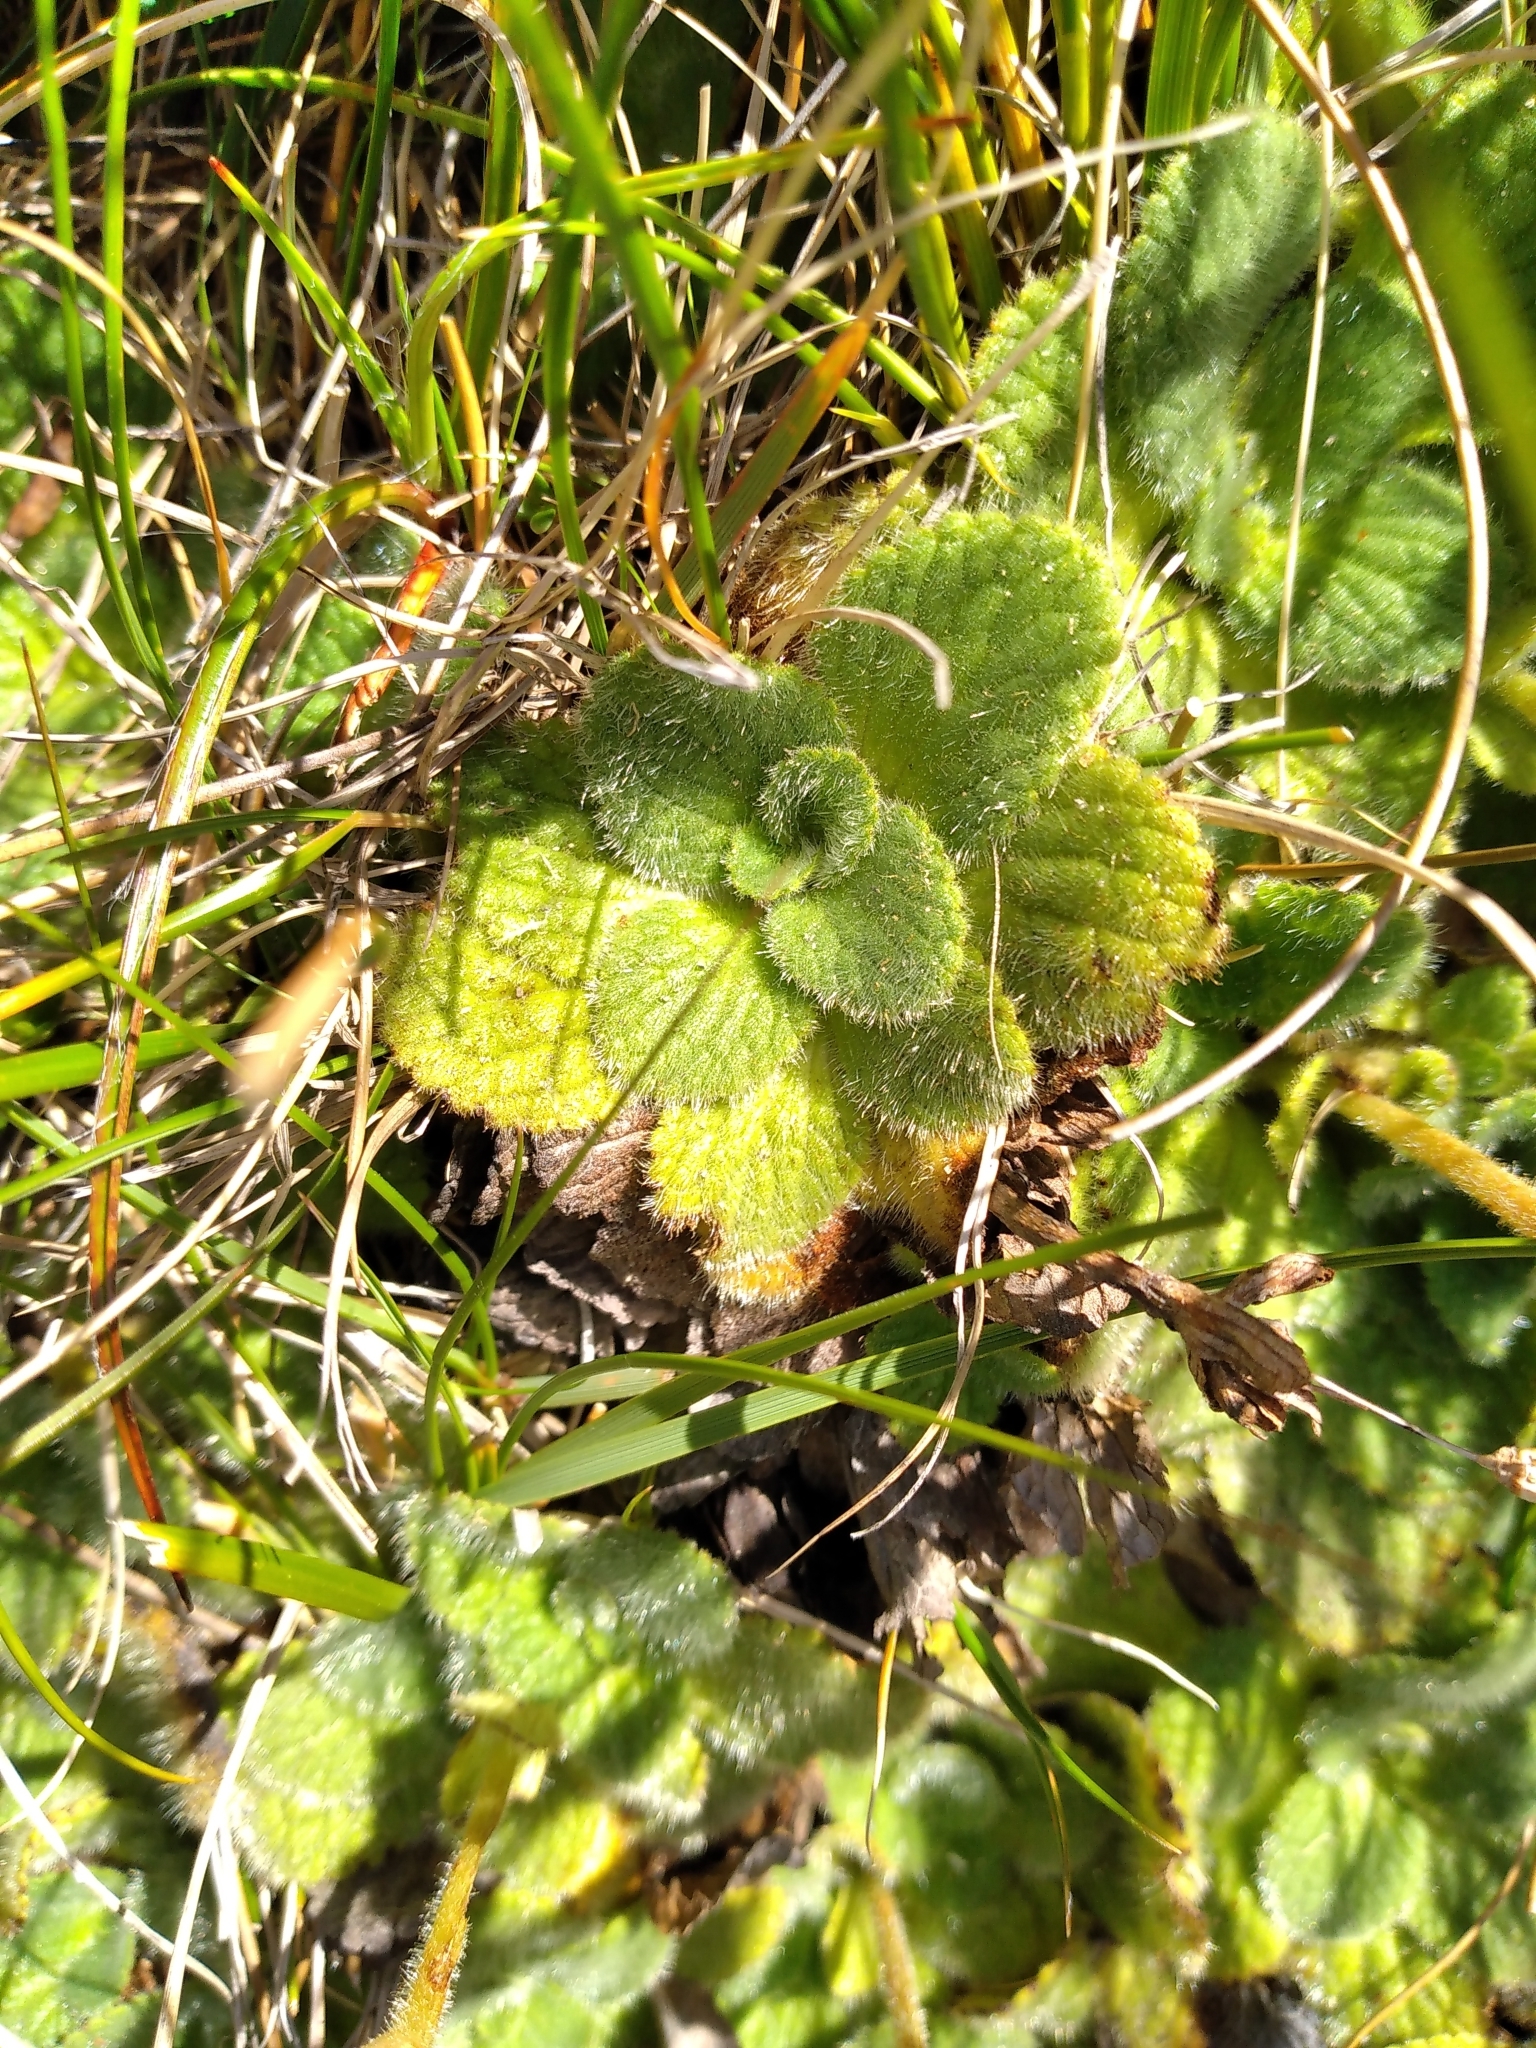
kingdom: Plantae
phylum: Tracheophyta
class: Magnoliopsida
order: Lamiales
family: Plantaginaceae
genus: Ourisia
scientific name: Ourisia sessilifolia
